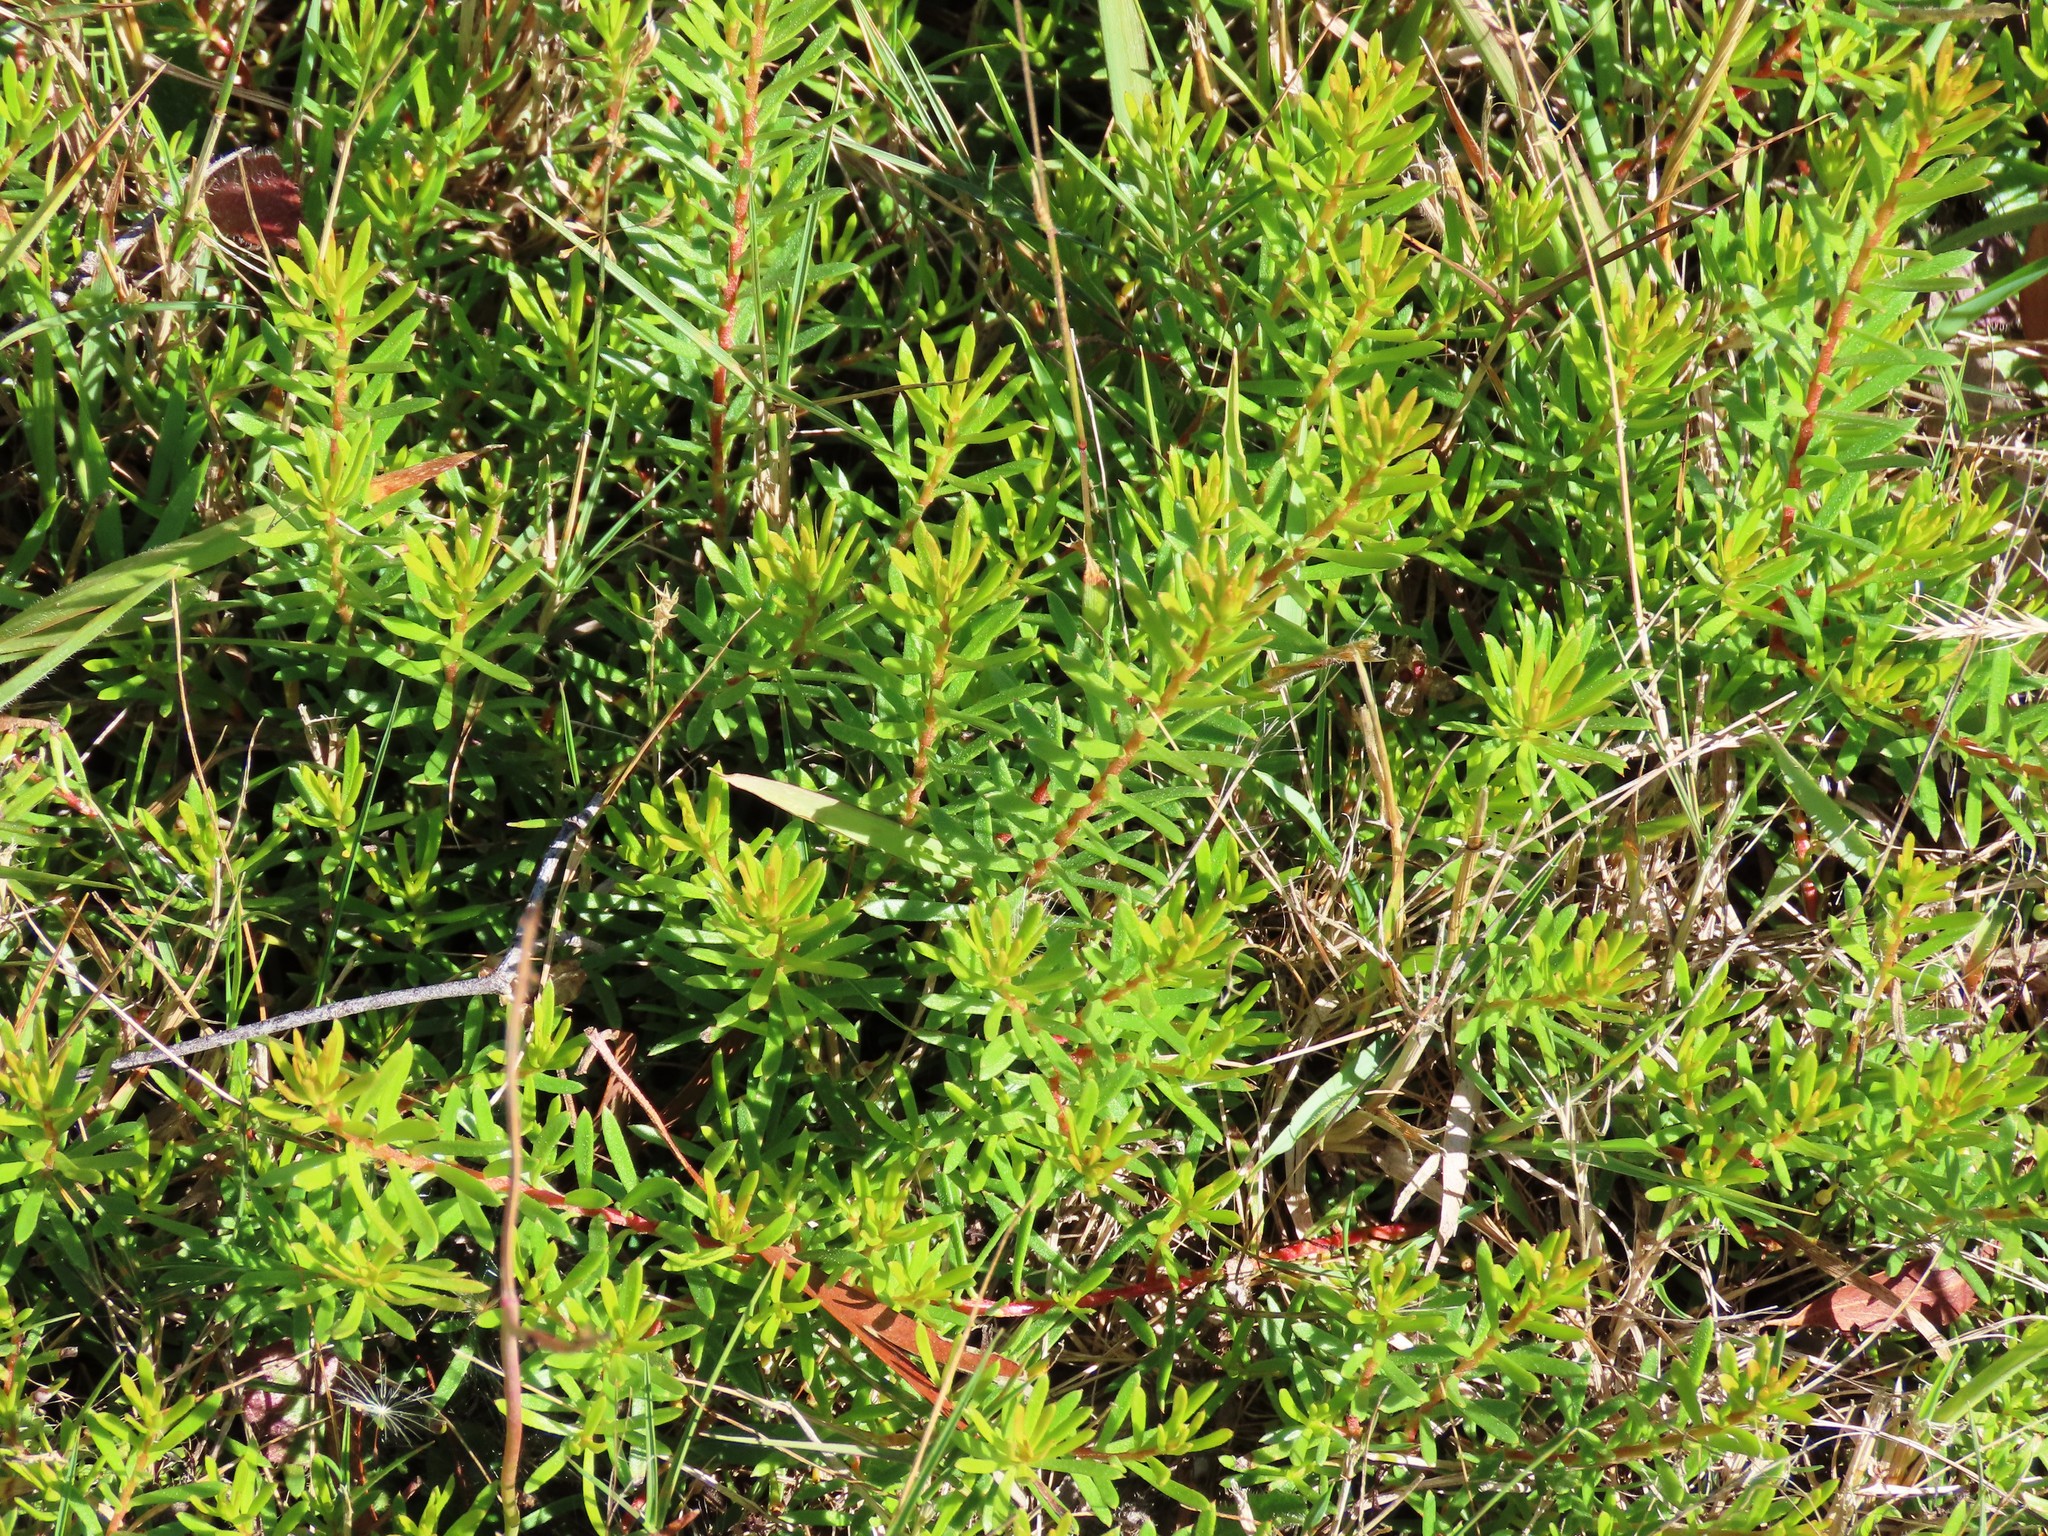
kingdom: Plantae
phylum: Tracheophyta
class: Magnoliopsida
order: Proteales
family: Proteaceae
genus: Persoonia
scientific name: Persoonia chamaepeuce
